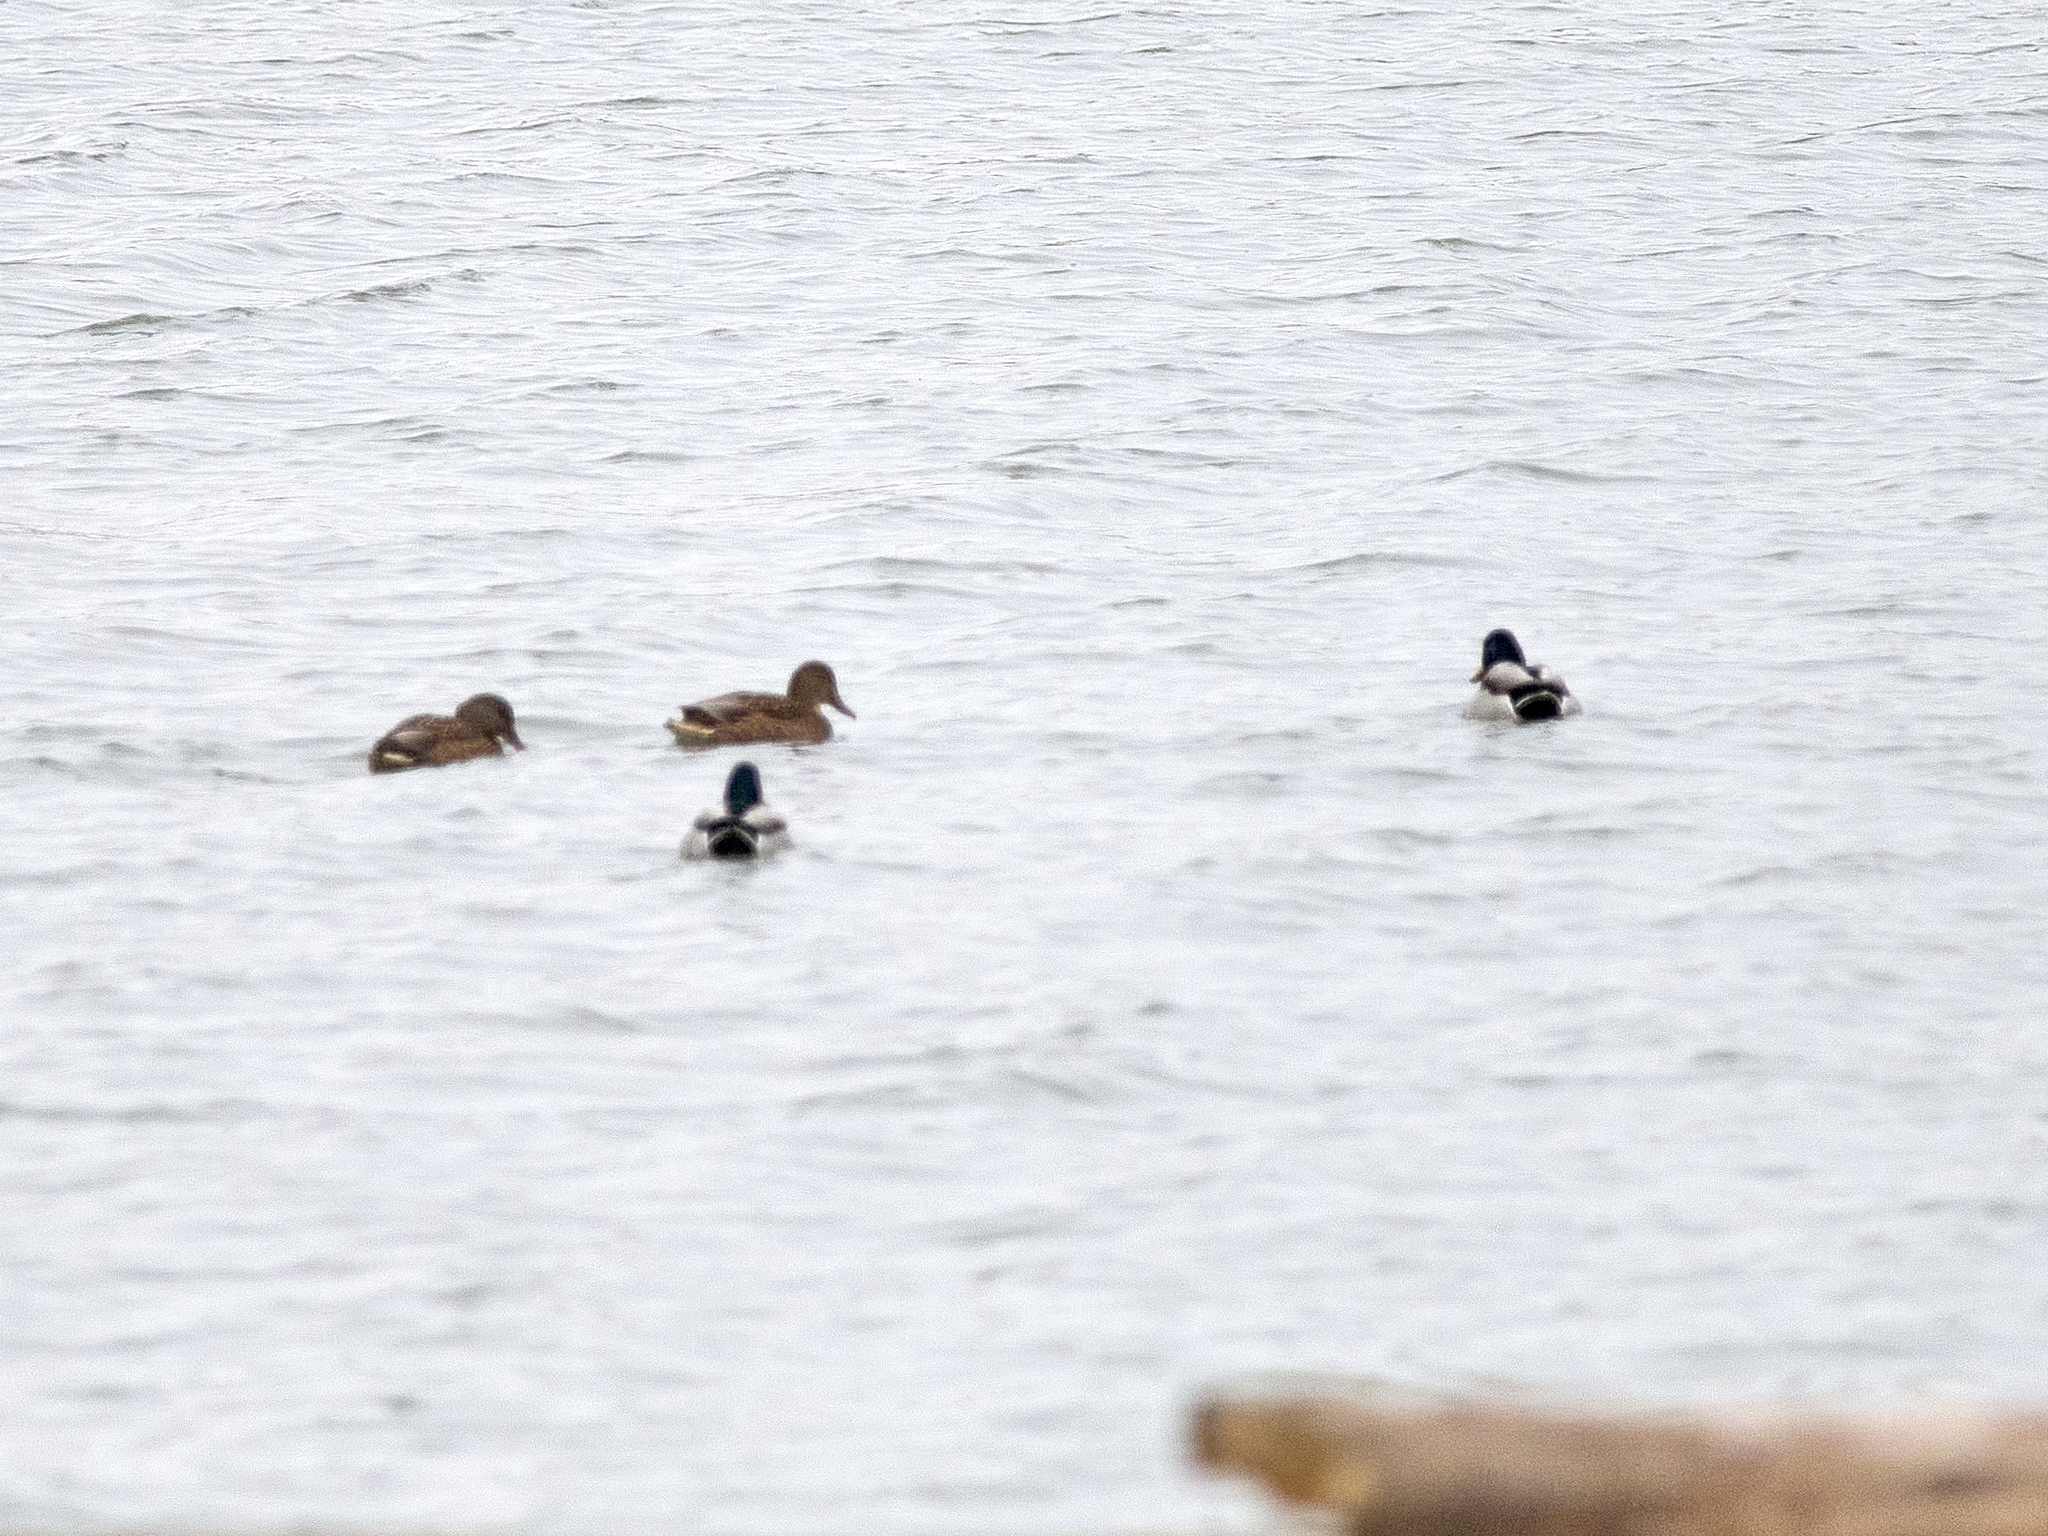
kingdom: Animalia
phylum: Chordata
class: Aves
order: Anseriformes
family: Anatidae
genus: Anas
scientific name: Anas platyrhynchos
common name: Mallard
